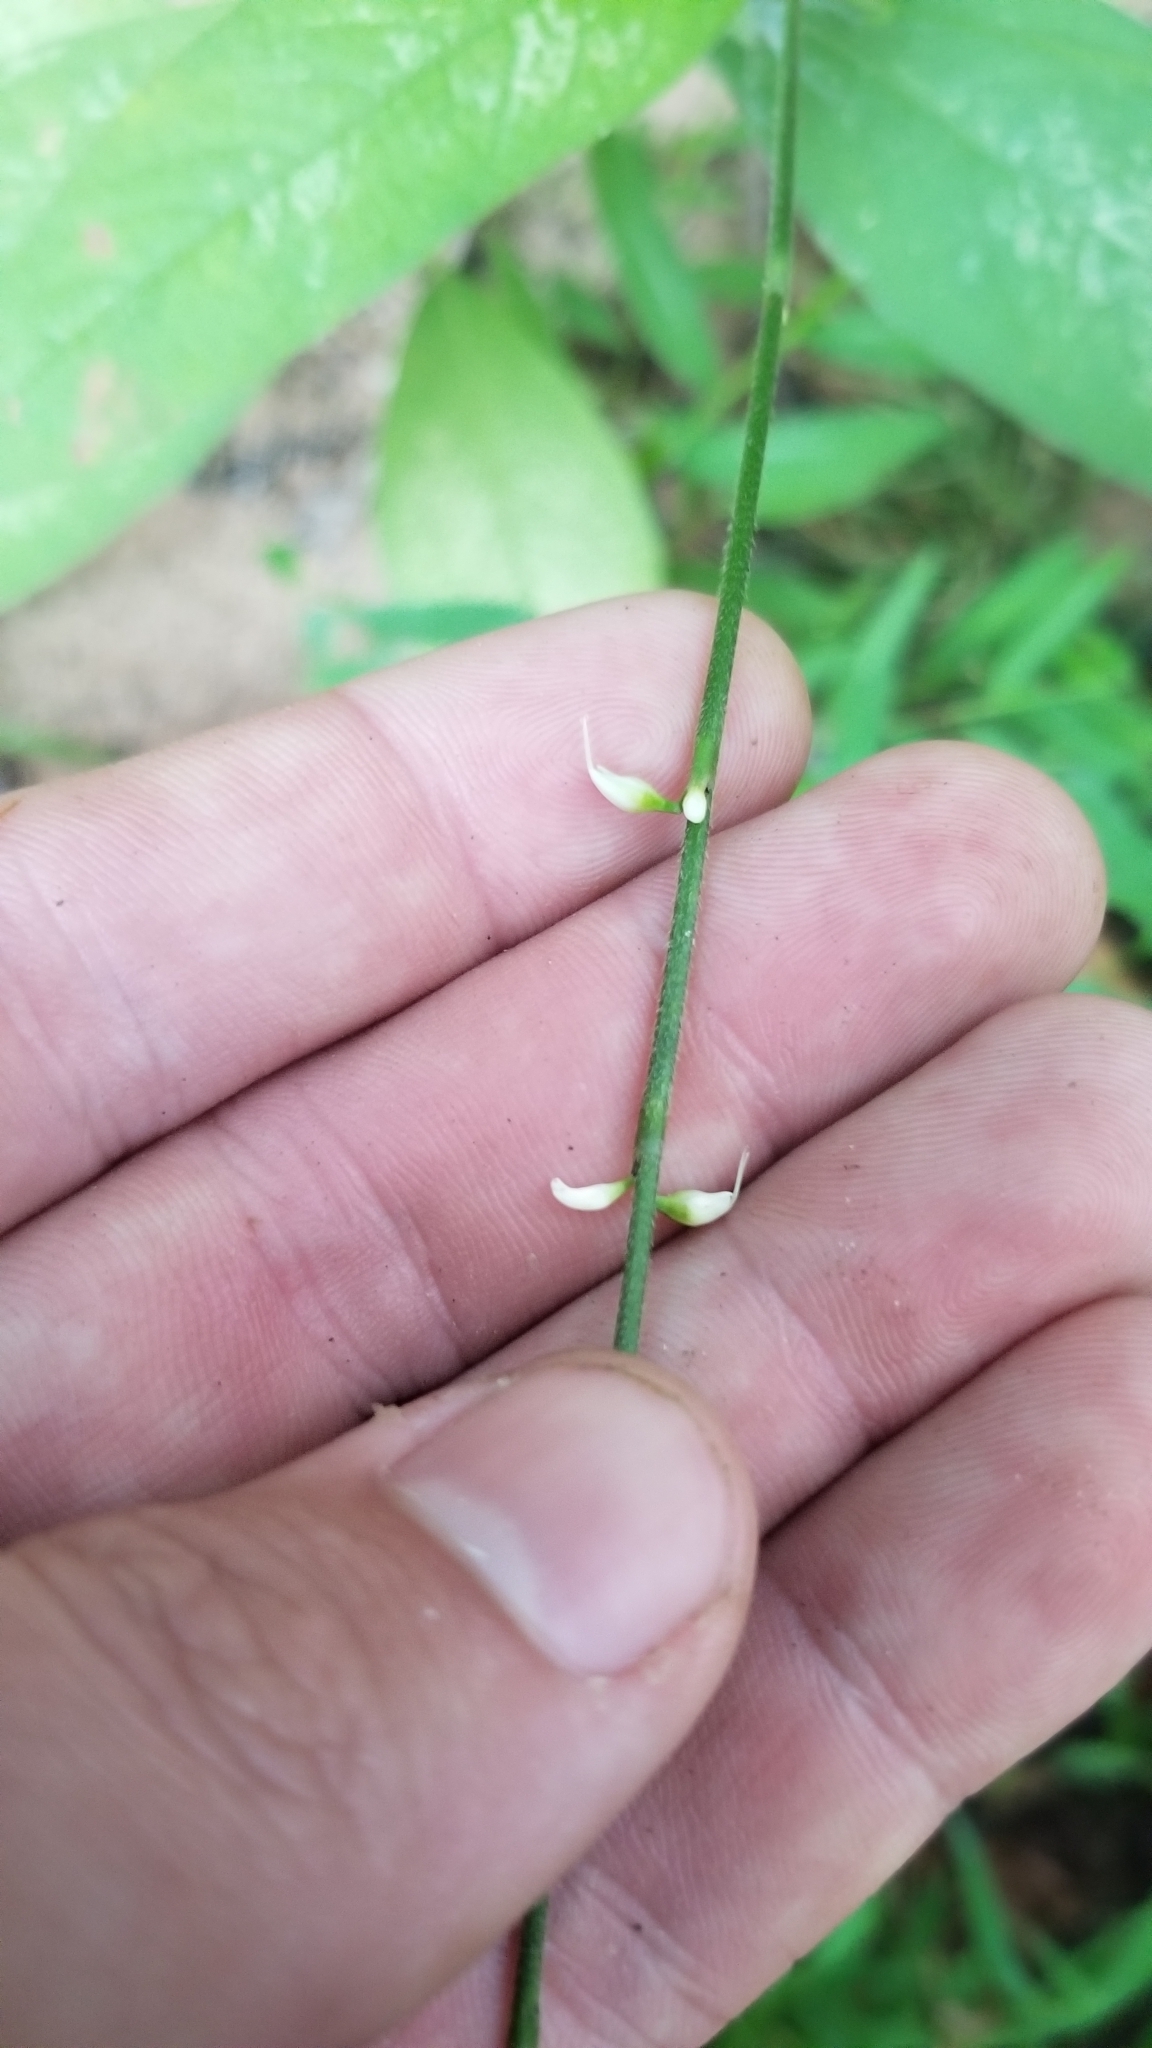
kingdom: Plantae
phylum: Tracheophyta
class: Magnoliopsida
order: Caryophyllales
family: Polygonaceae
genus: Persicaria
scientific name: Persicaria virginiana
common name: Jumpseed
